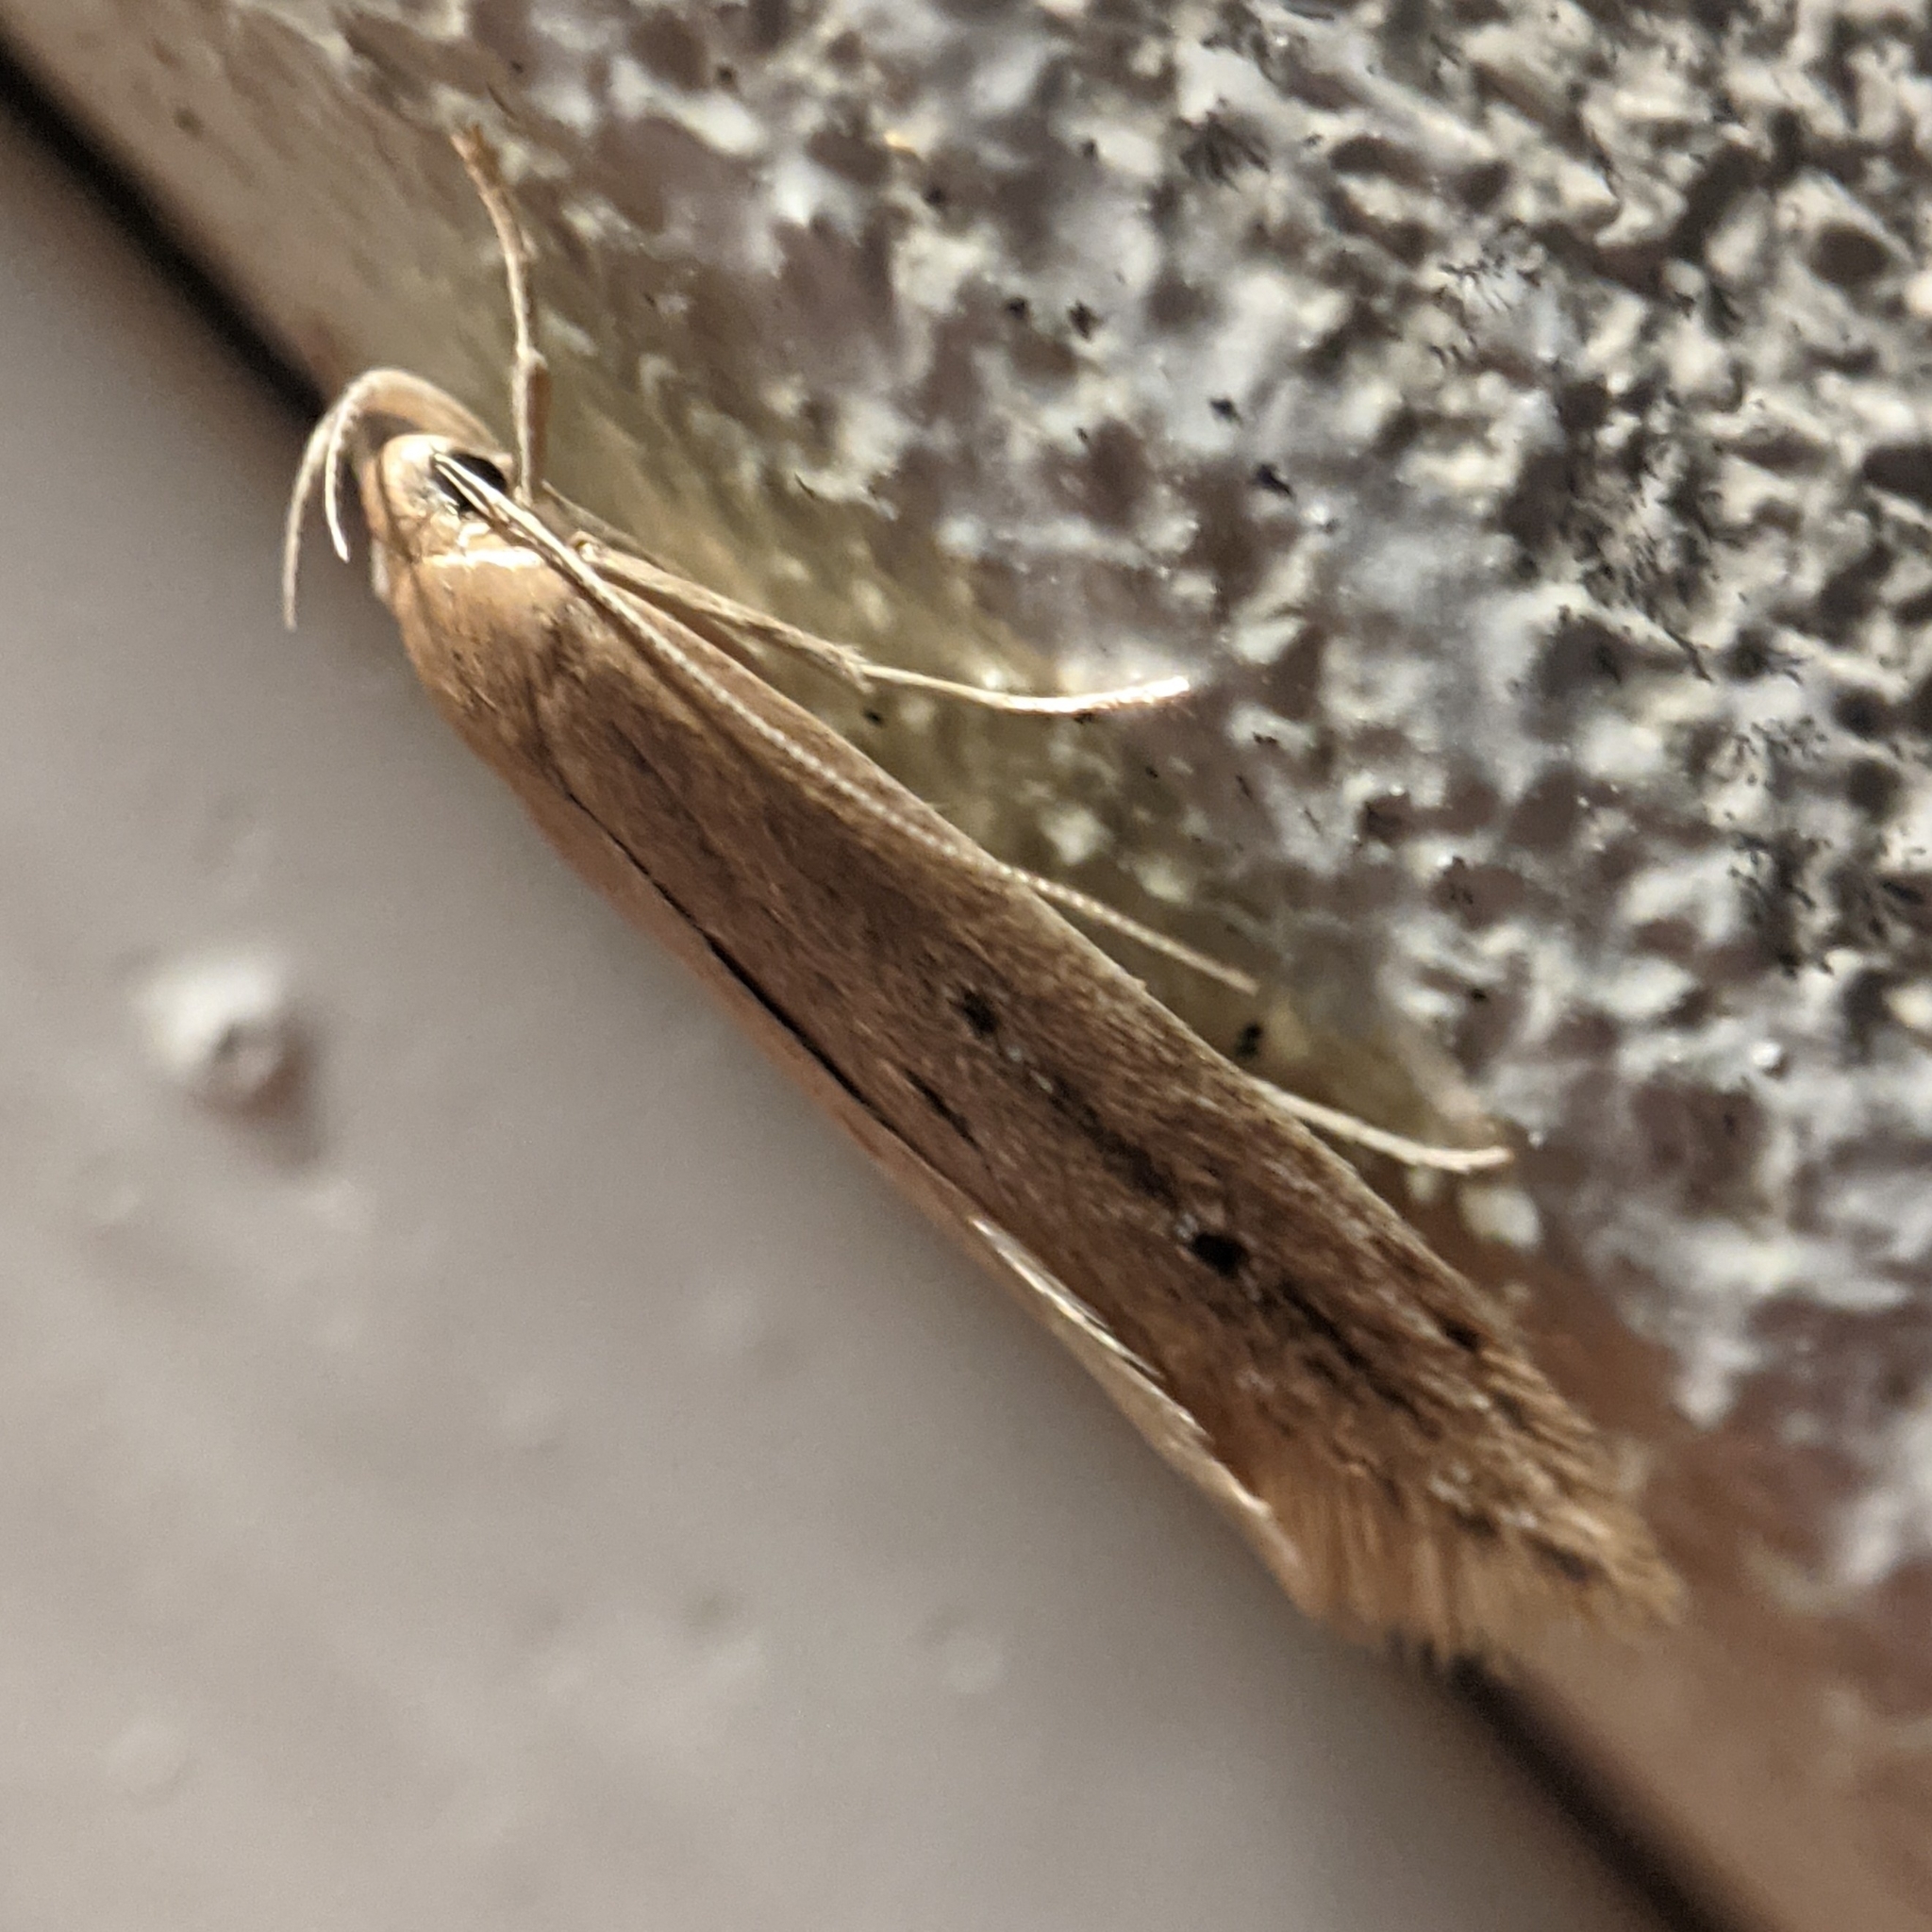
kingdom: Animalia
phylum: Arthropoda
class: Insecta
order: Lepidoptera
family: Cosmopterigidae
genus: Limnaecia
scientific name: Limnaecia phragmitella
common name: Bulrush cosmet
